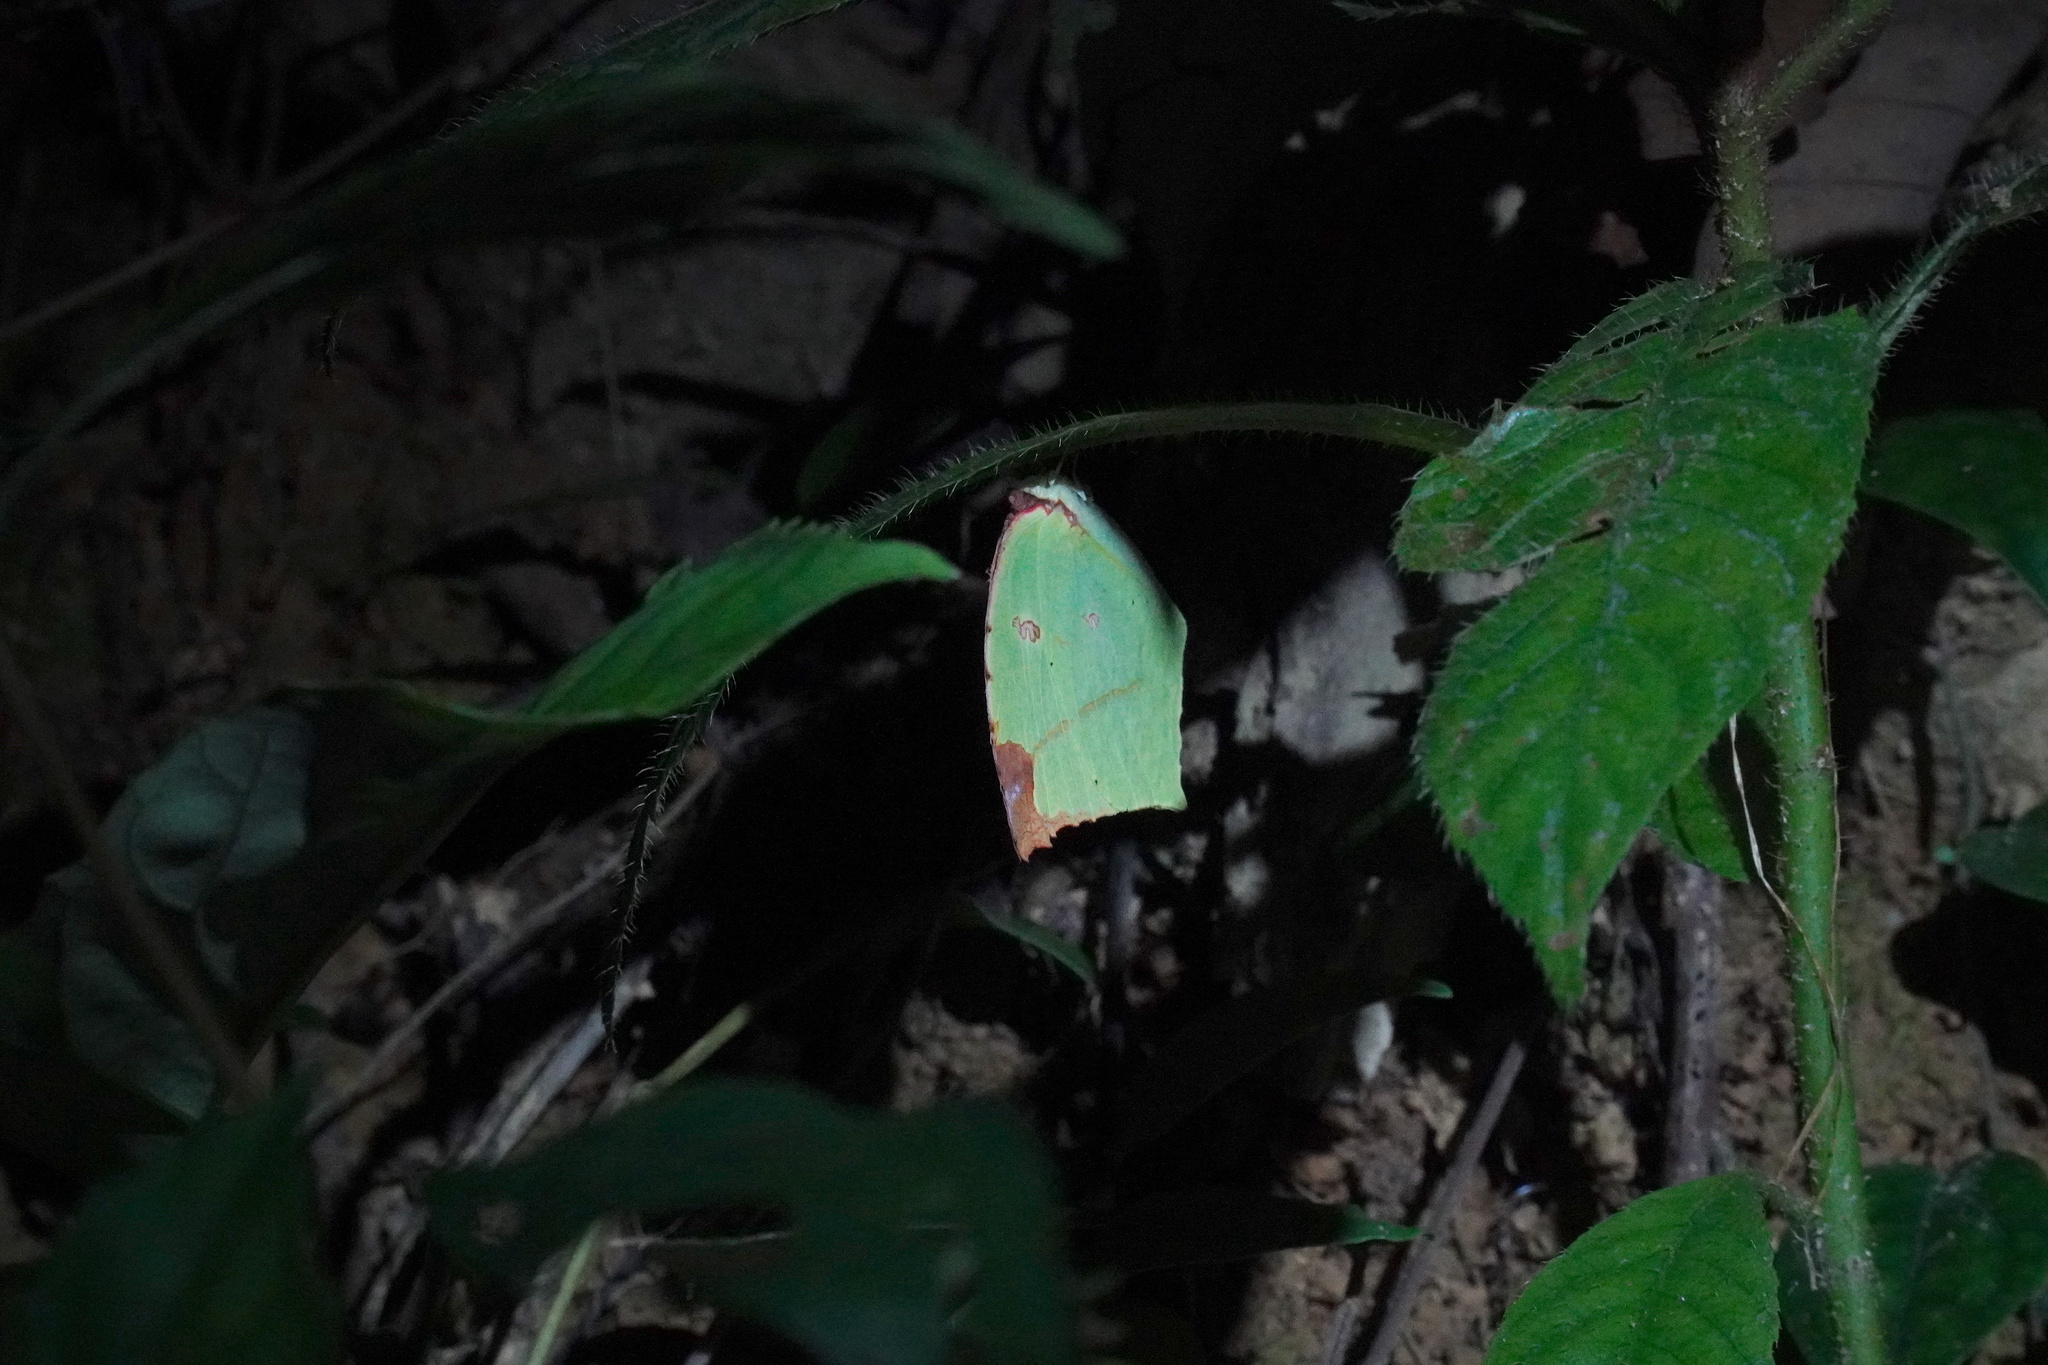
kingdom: Animalia
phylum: Arthropoda
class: Insecta
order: Lepidoptera
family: Pieridae
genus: Dercas
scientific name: Dercas verhuelli
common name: Tailed sulphur
